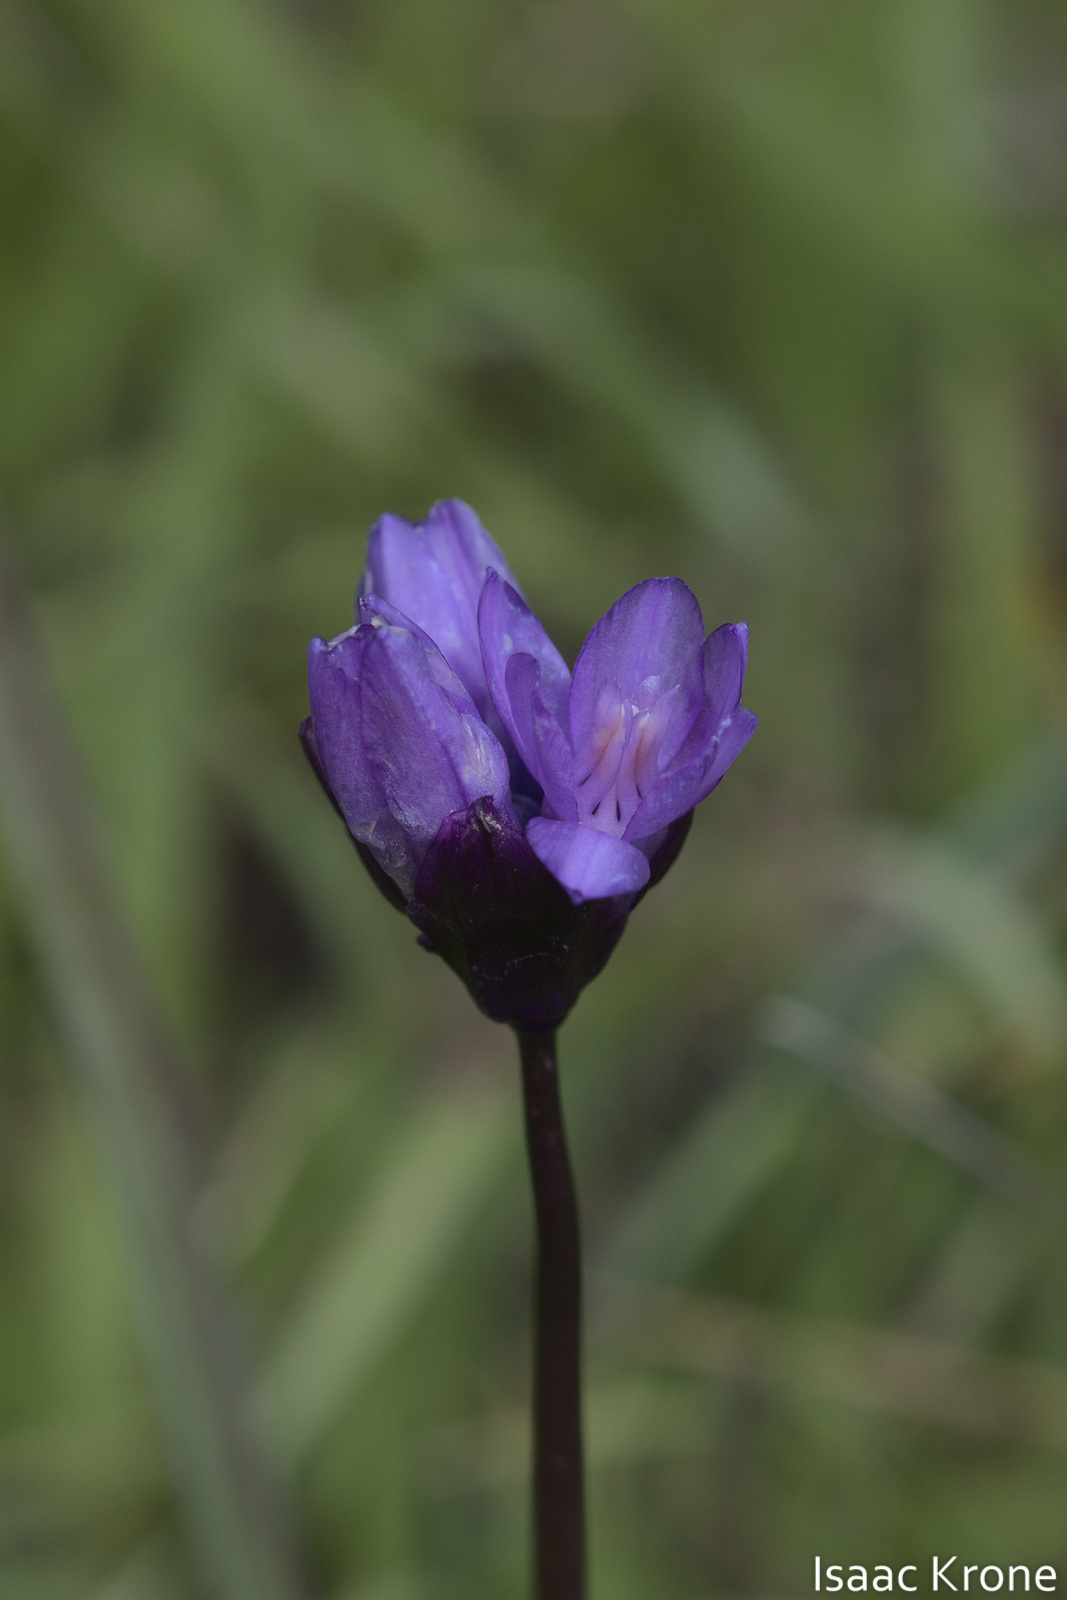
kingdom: Plantae
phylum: Tracheophyta
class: Liliopsida
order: Asparagales
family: Asparagaceae
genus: Dipterostemon
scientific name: Dipterostemon capitatus
